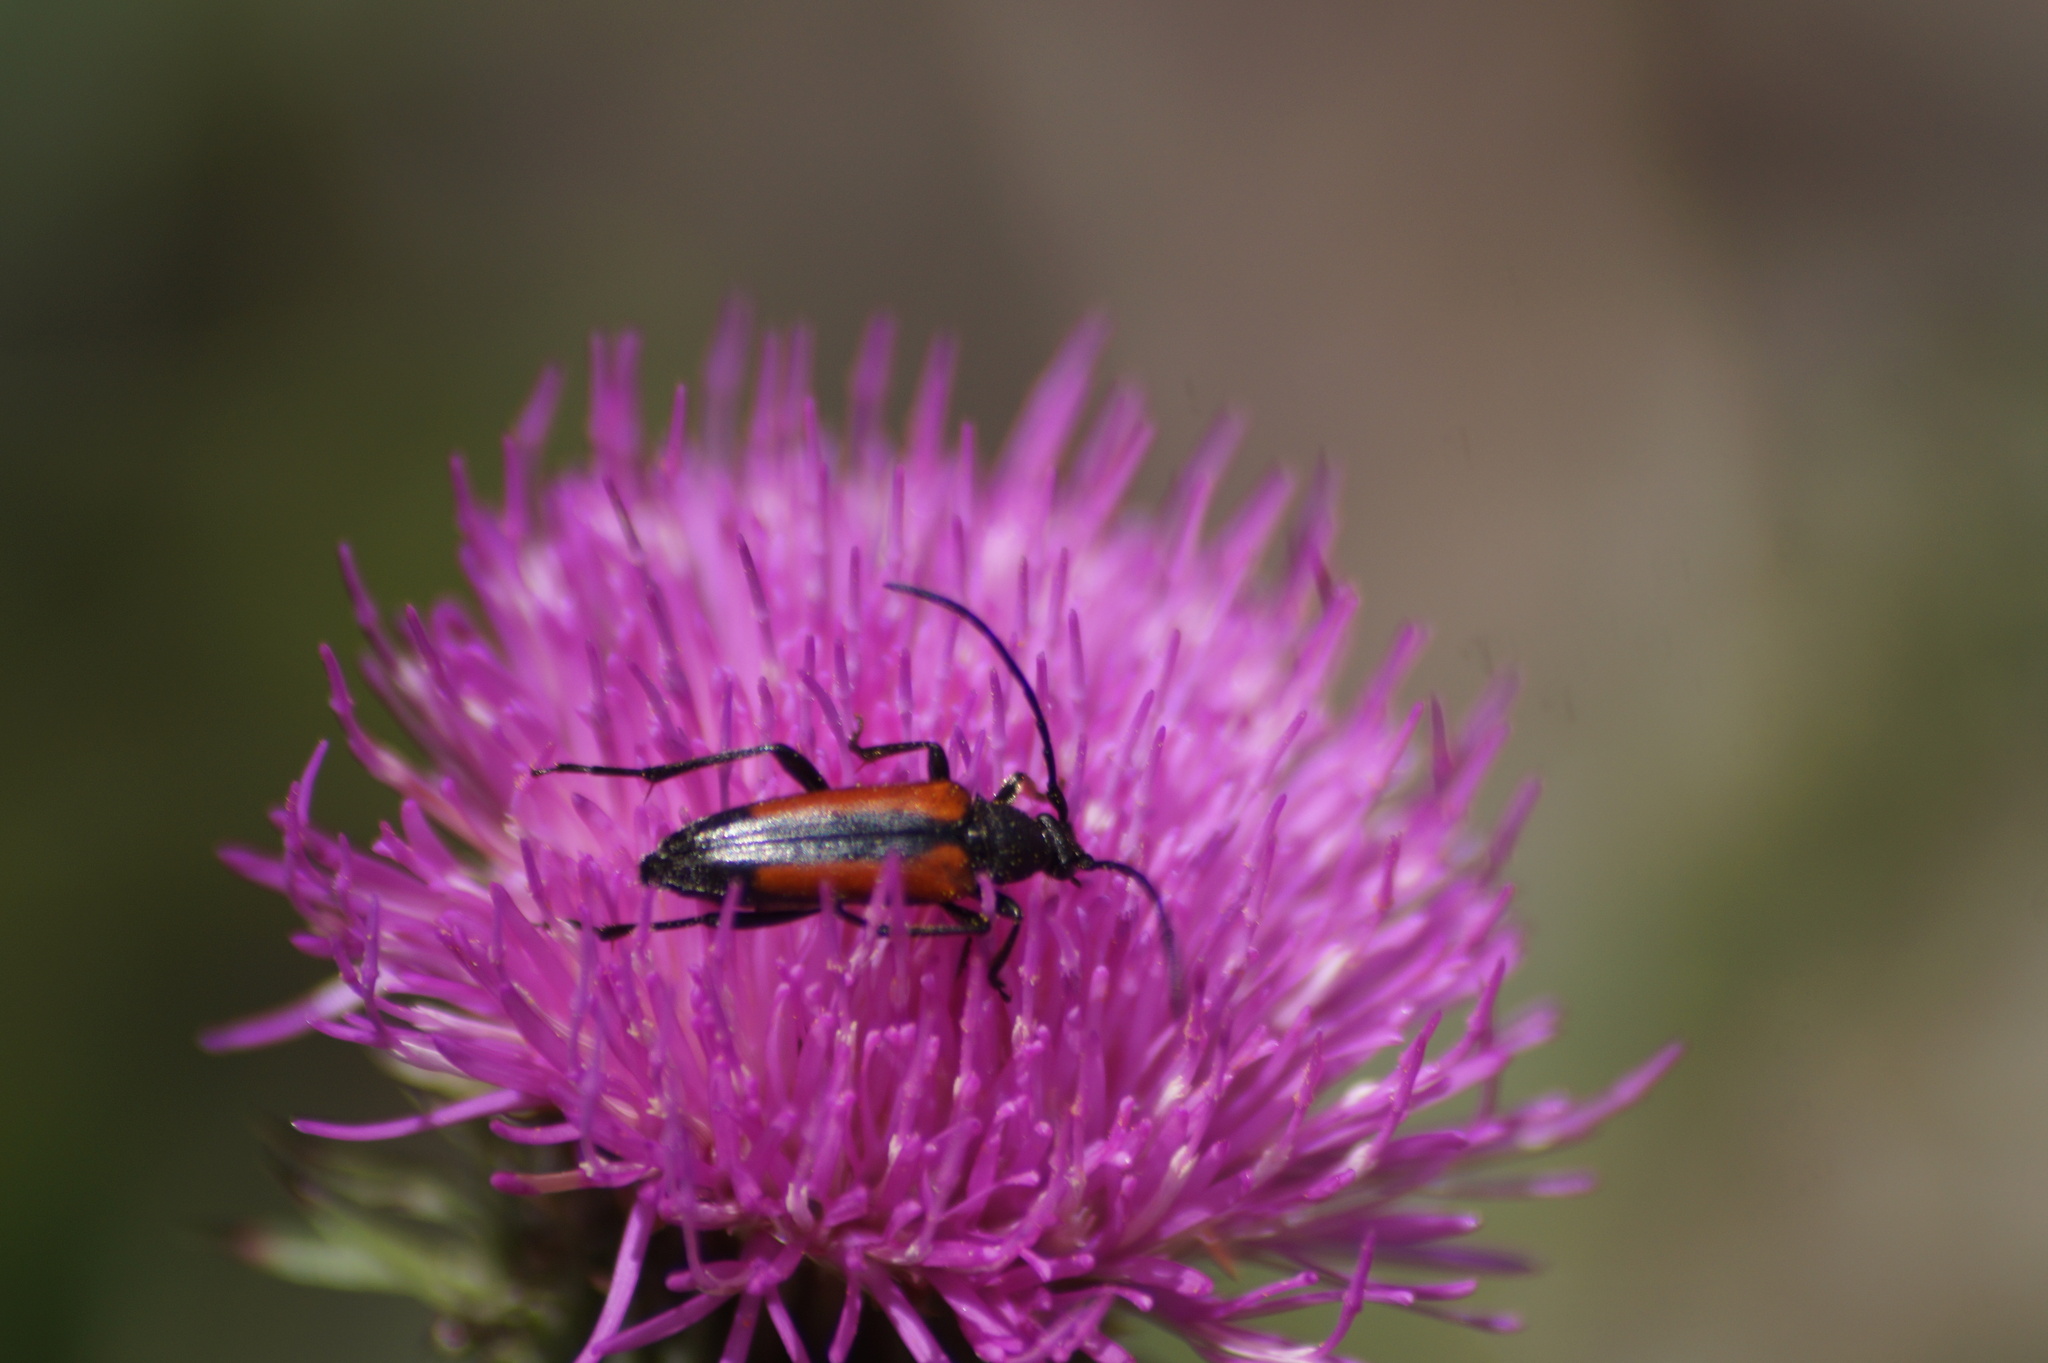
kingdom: Animalia
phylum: Arthropoda
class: Insecta
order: Coleoptera
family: Cerambycidae
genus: Stenurella
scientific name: Stenurella melanura
